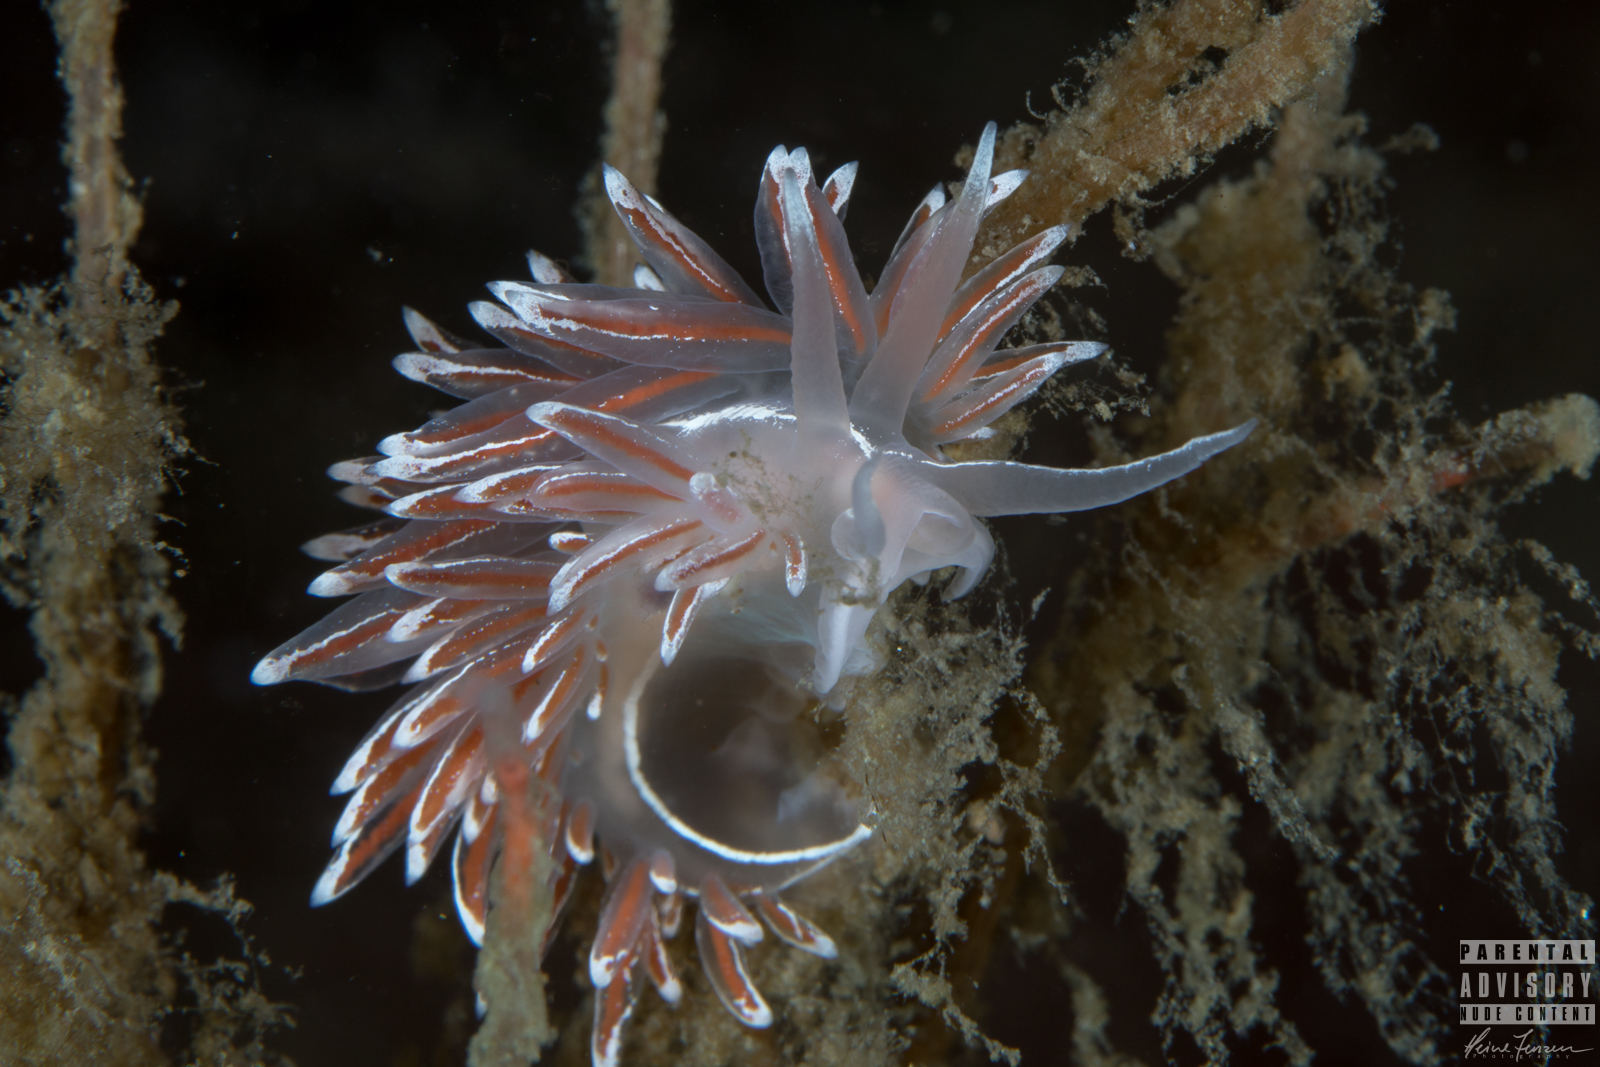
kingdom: Animalia
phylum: Mollusca
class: Gastropoda
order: Nudibranchia
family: Coryphellidae
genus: Coryphella
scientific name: Coryphella lineata
